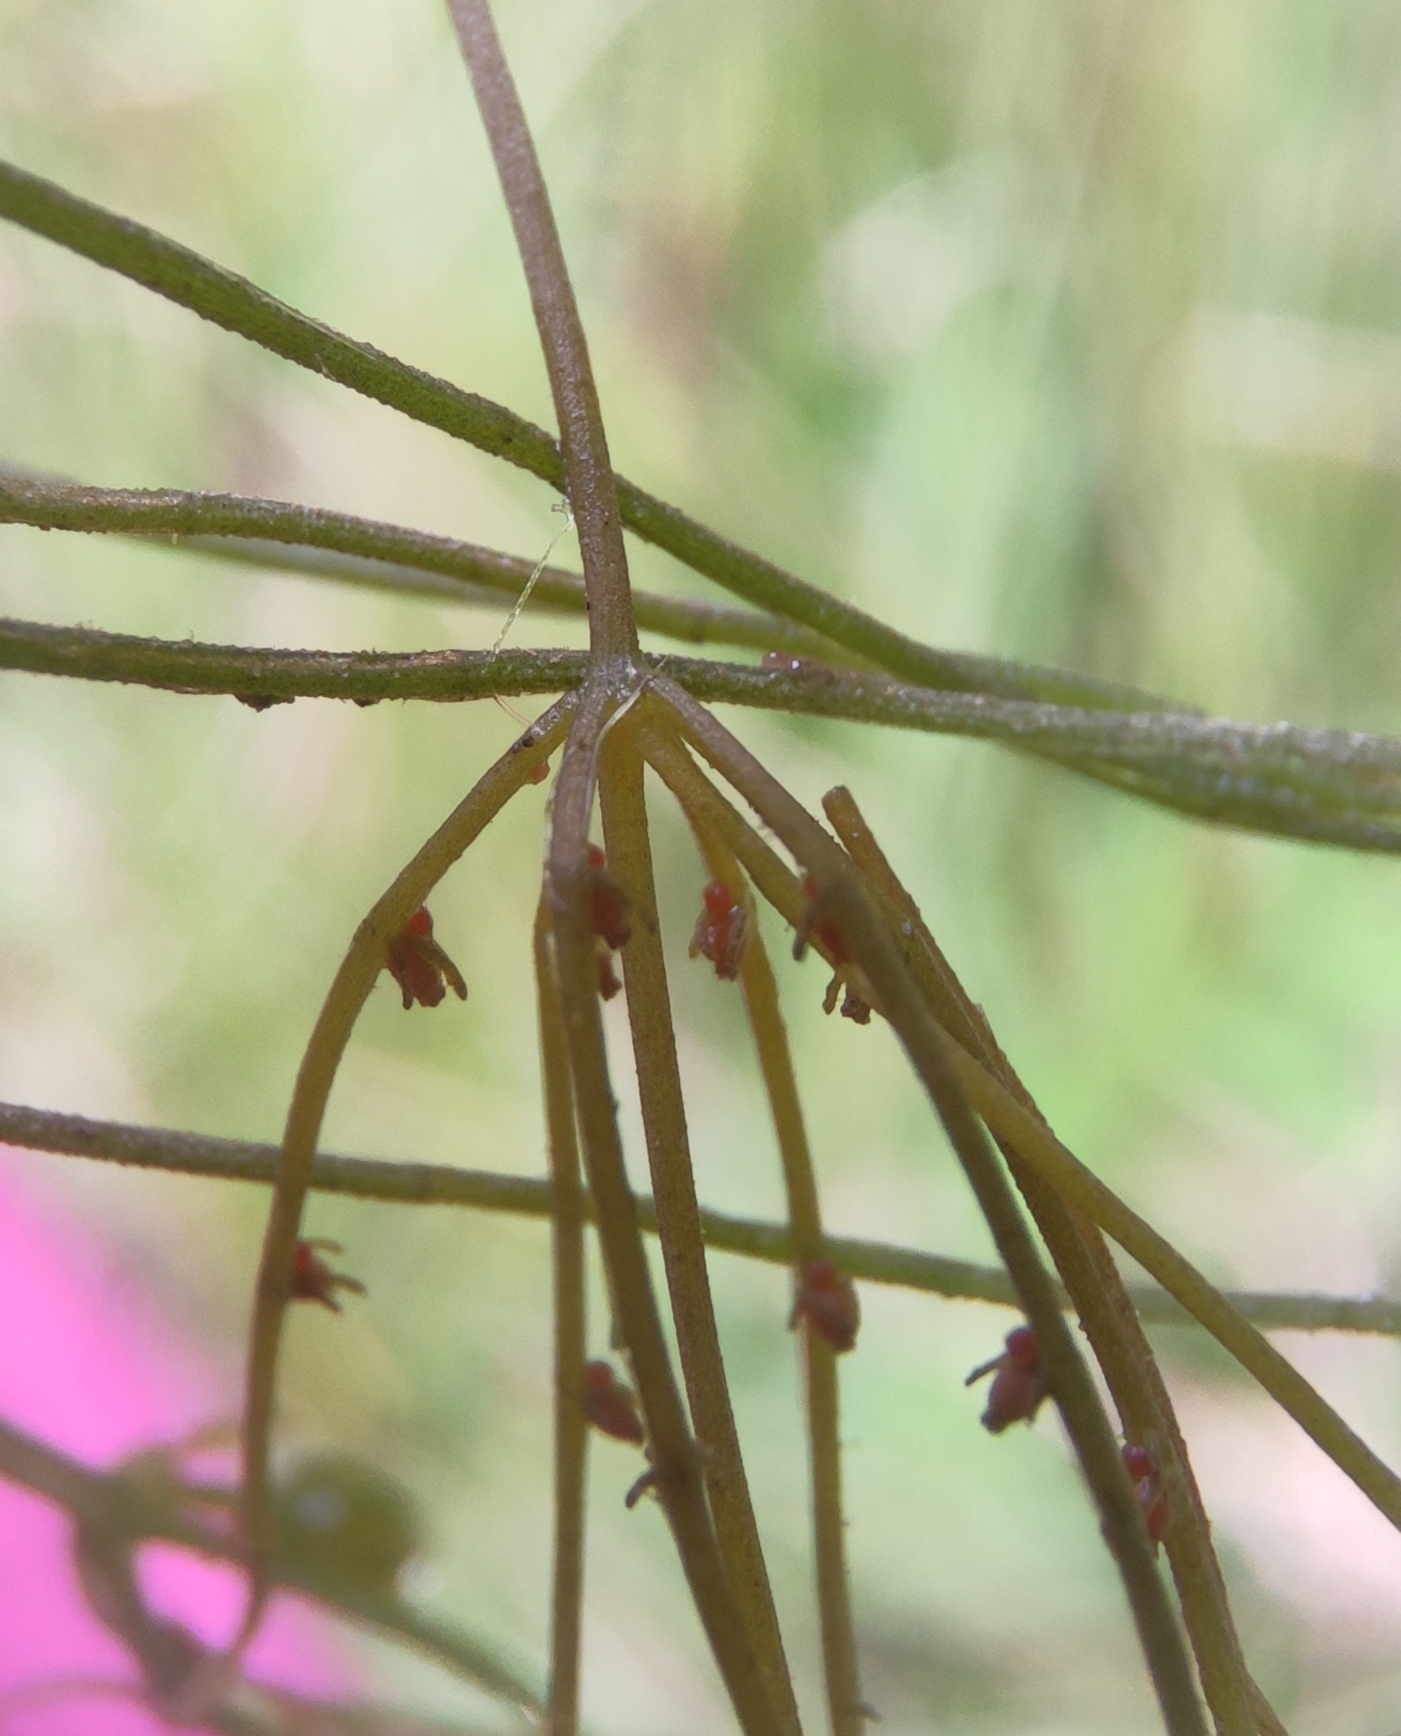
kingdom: Plantae
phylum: Charophyta
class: Charophyceae
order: Charales
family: Characeae
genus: Chara
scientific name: Chara globularis
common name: Fragile stonewort
